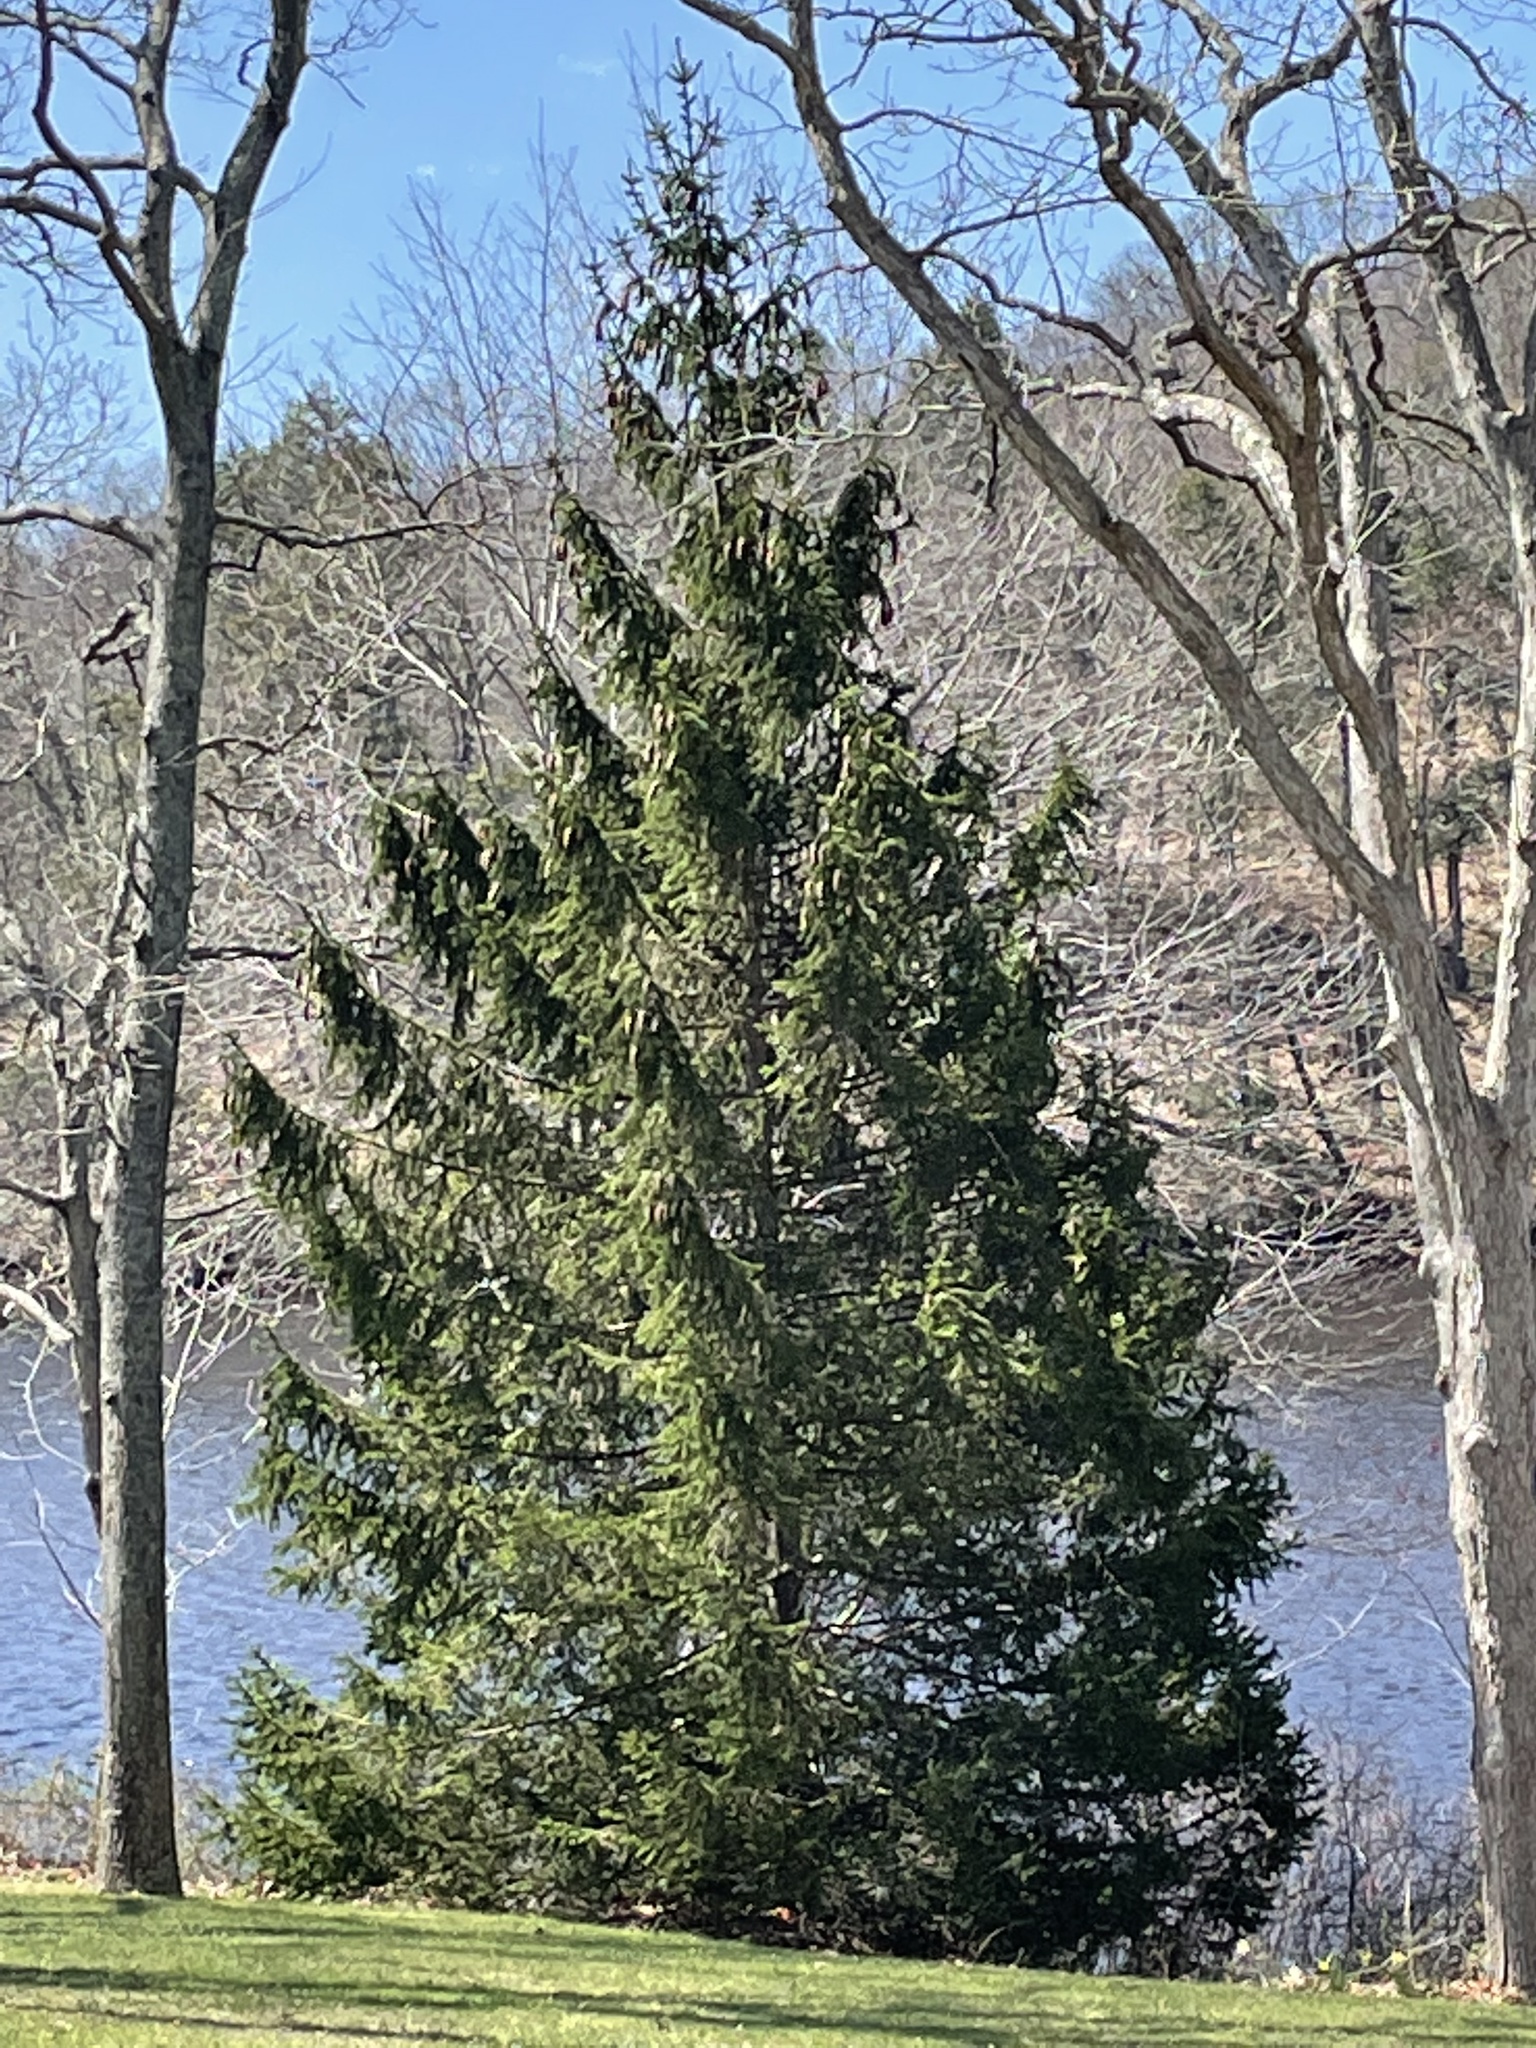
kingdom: Plantae
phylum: Tracheophyta
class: Pinopsida
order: Pinales
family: Pinaceae
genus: Picea
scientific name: Picea abies
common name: Norway spruce
